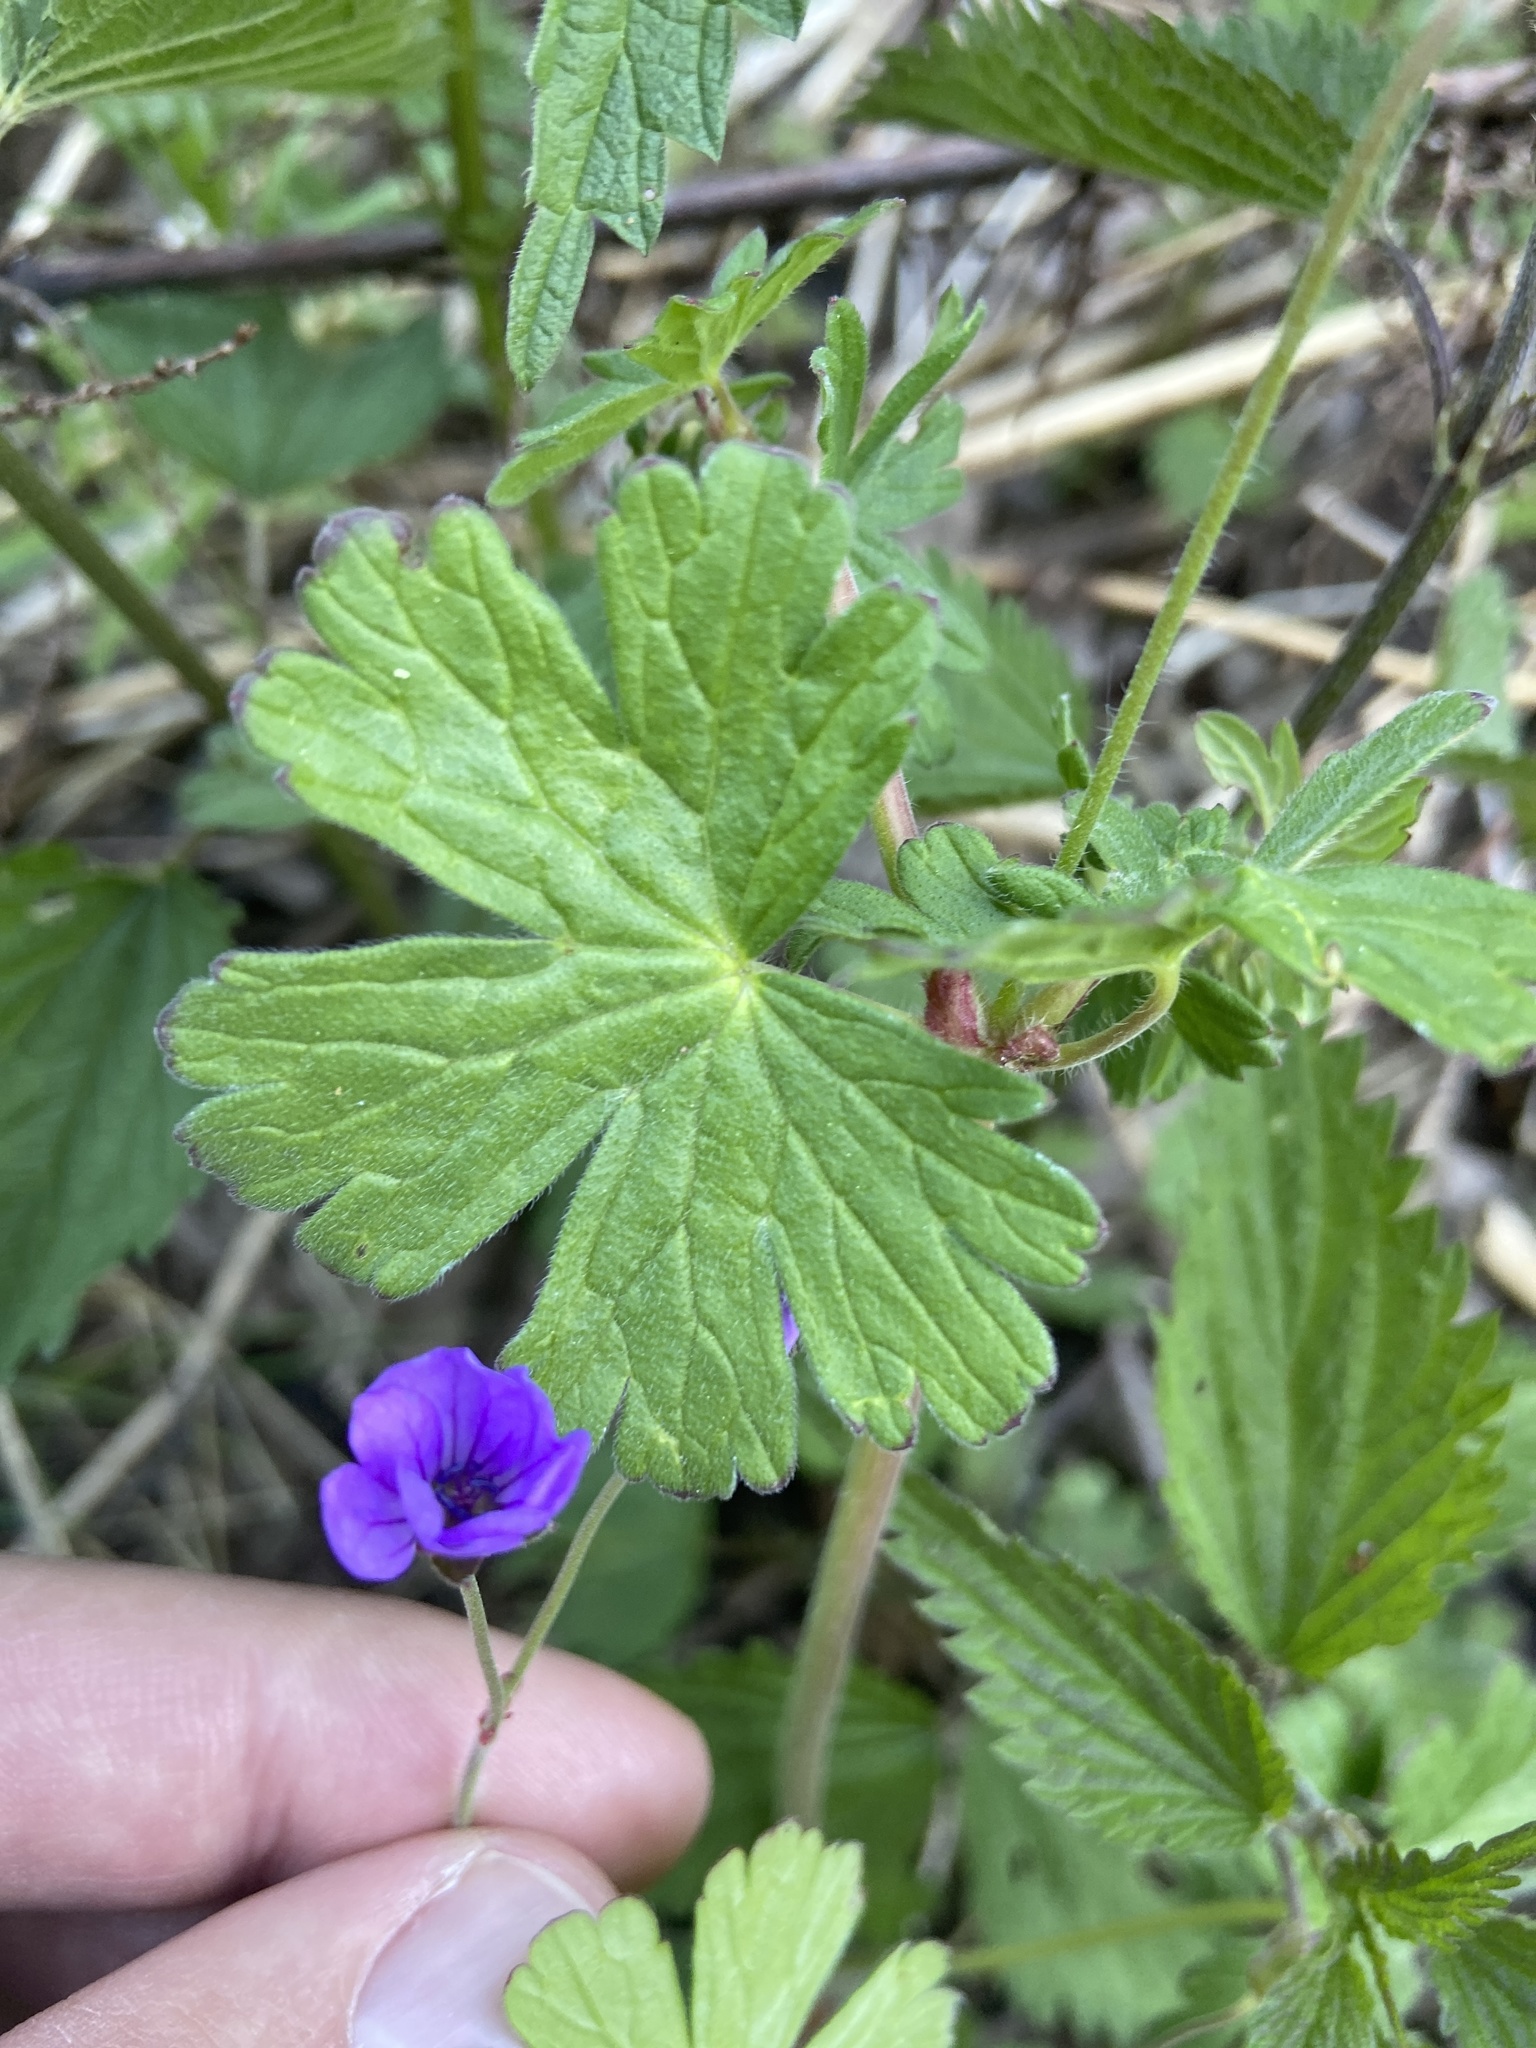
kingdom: Plantae
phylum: Tracheophyta
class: Magnoliopsida
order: Geraniales
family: Geraniaceae
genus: Geranium
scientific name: Geranium pyrenaicum
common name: Hedgerow crane's-bill
